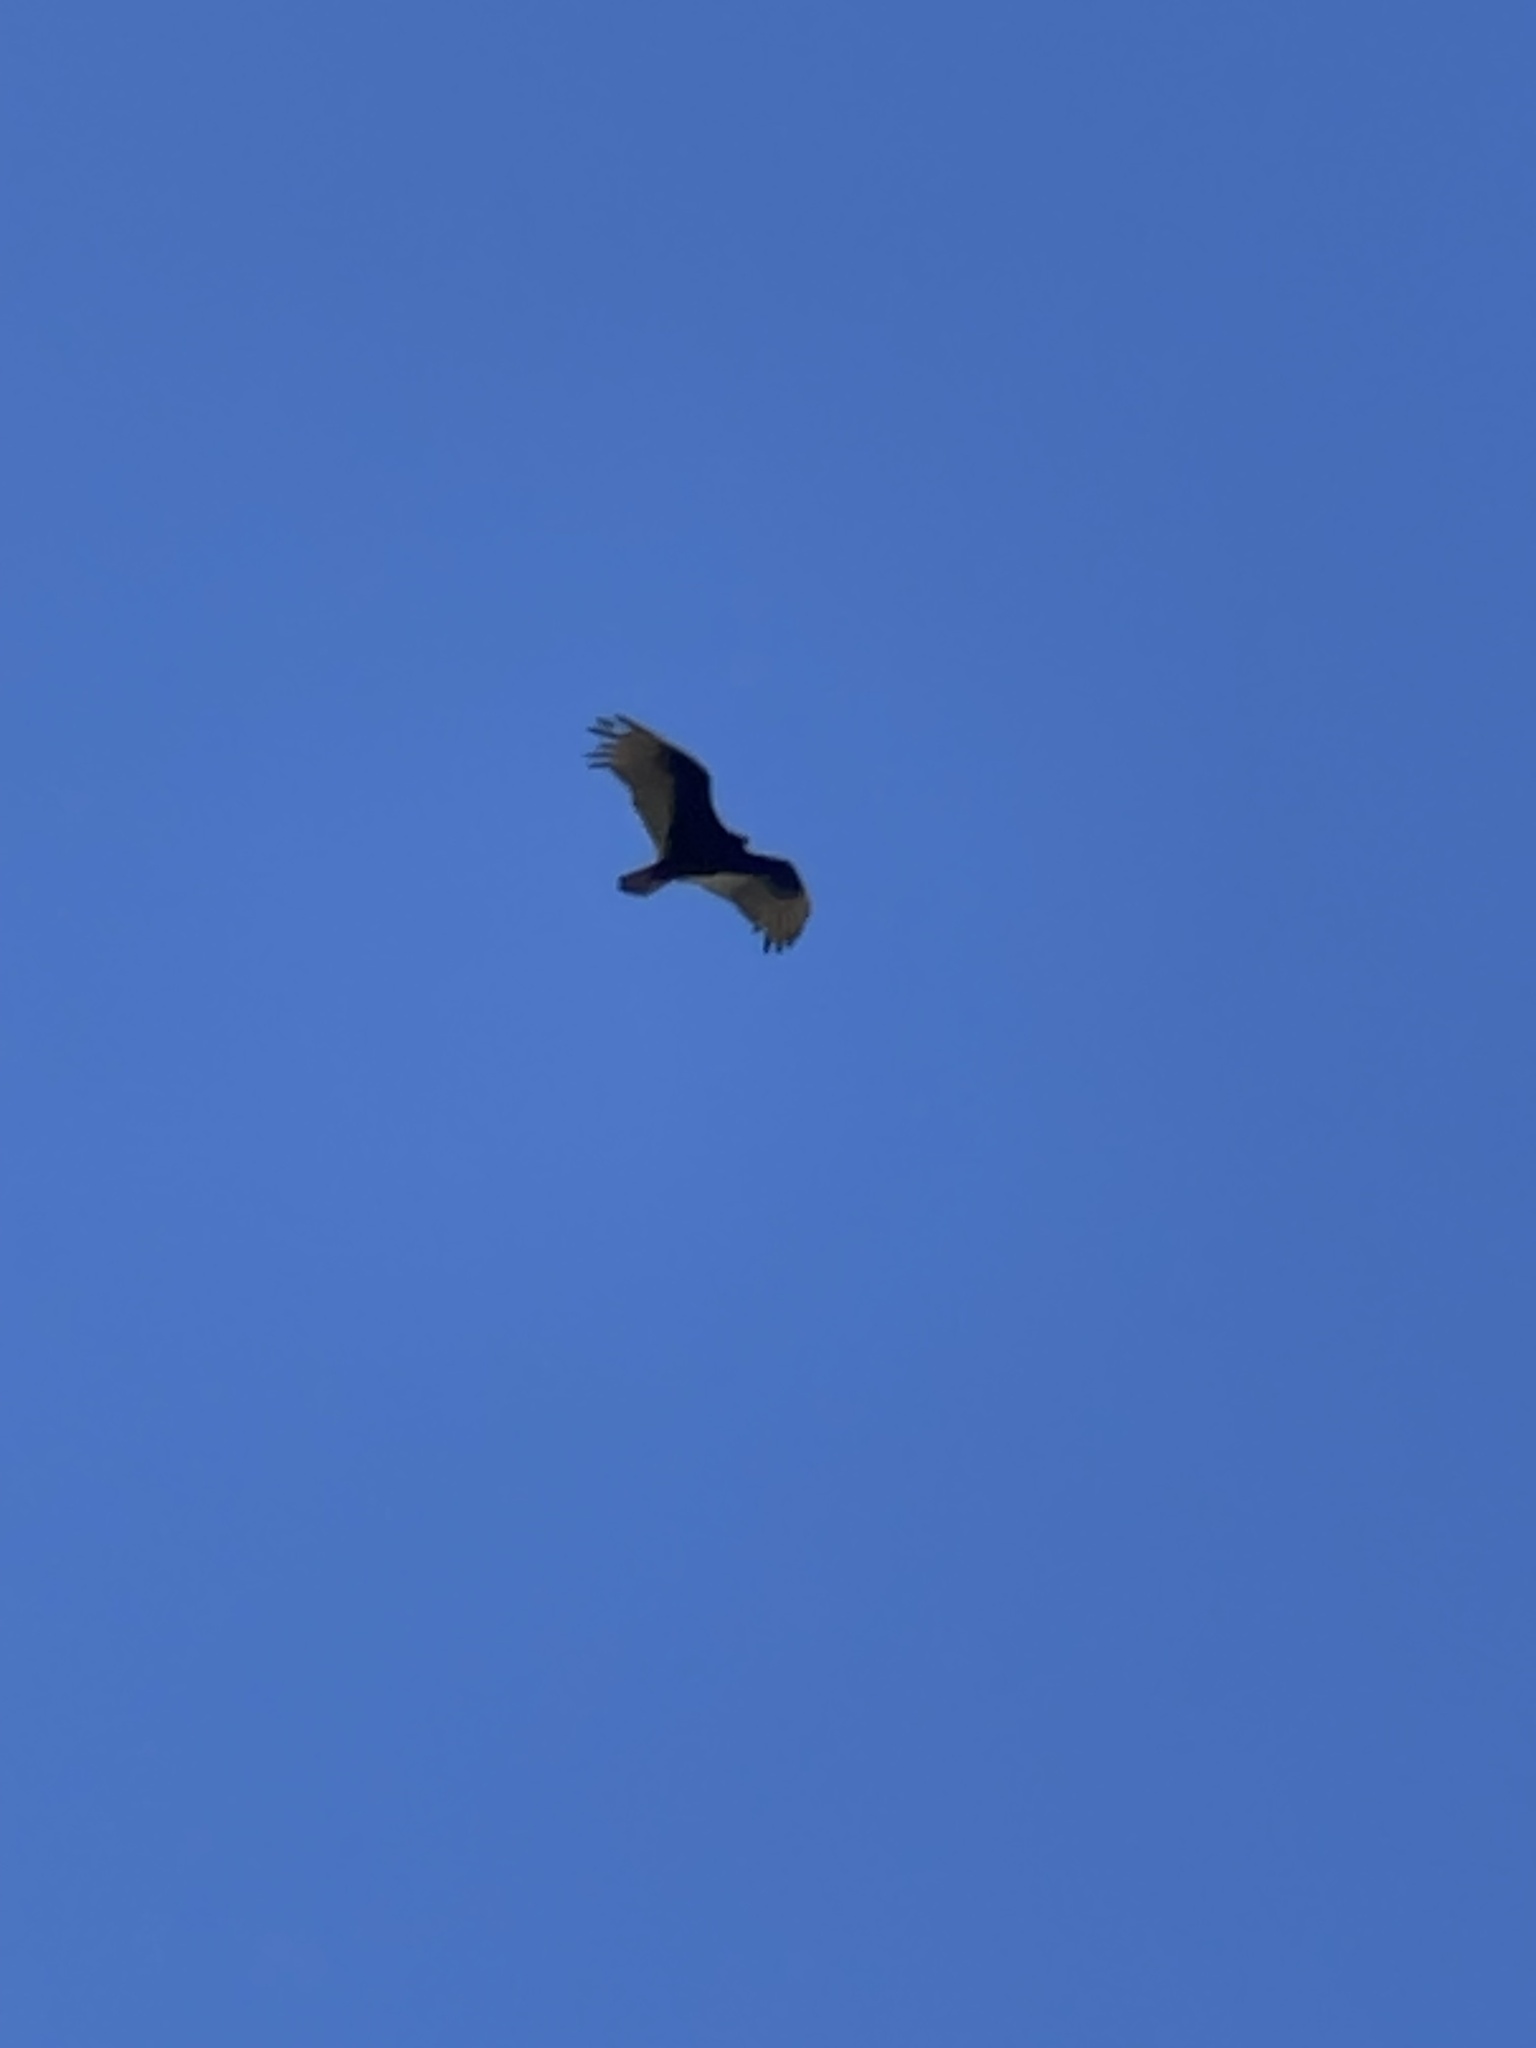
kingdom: Animalia
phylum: Chordata
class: Aves
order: Accipitriformes
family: Cathartidae
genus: Cathartes
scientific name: Cathartes aura
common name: Turkey vulture
